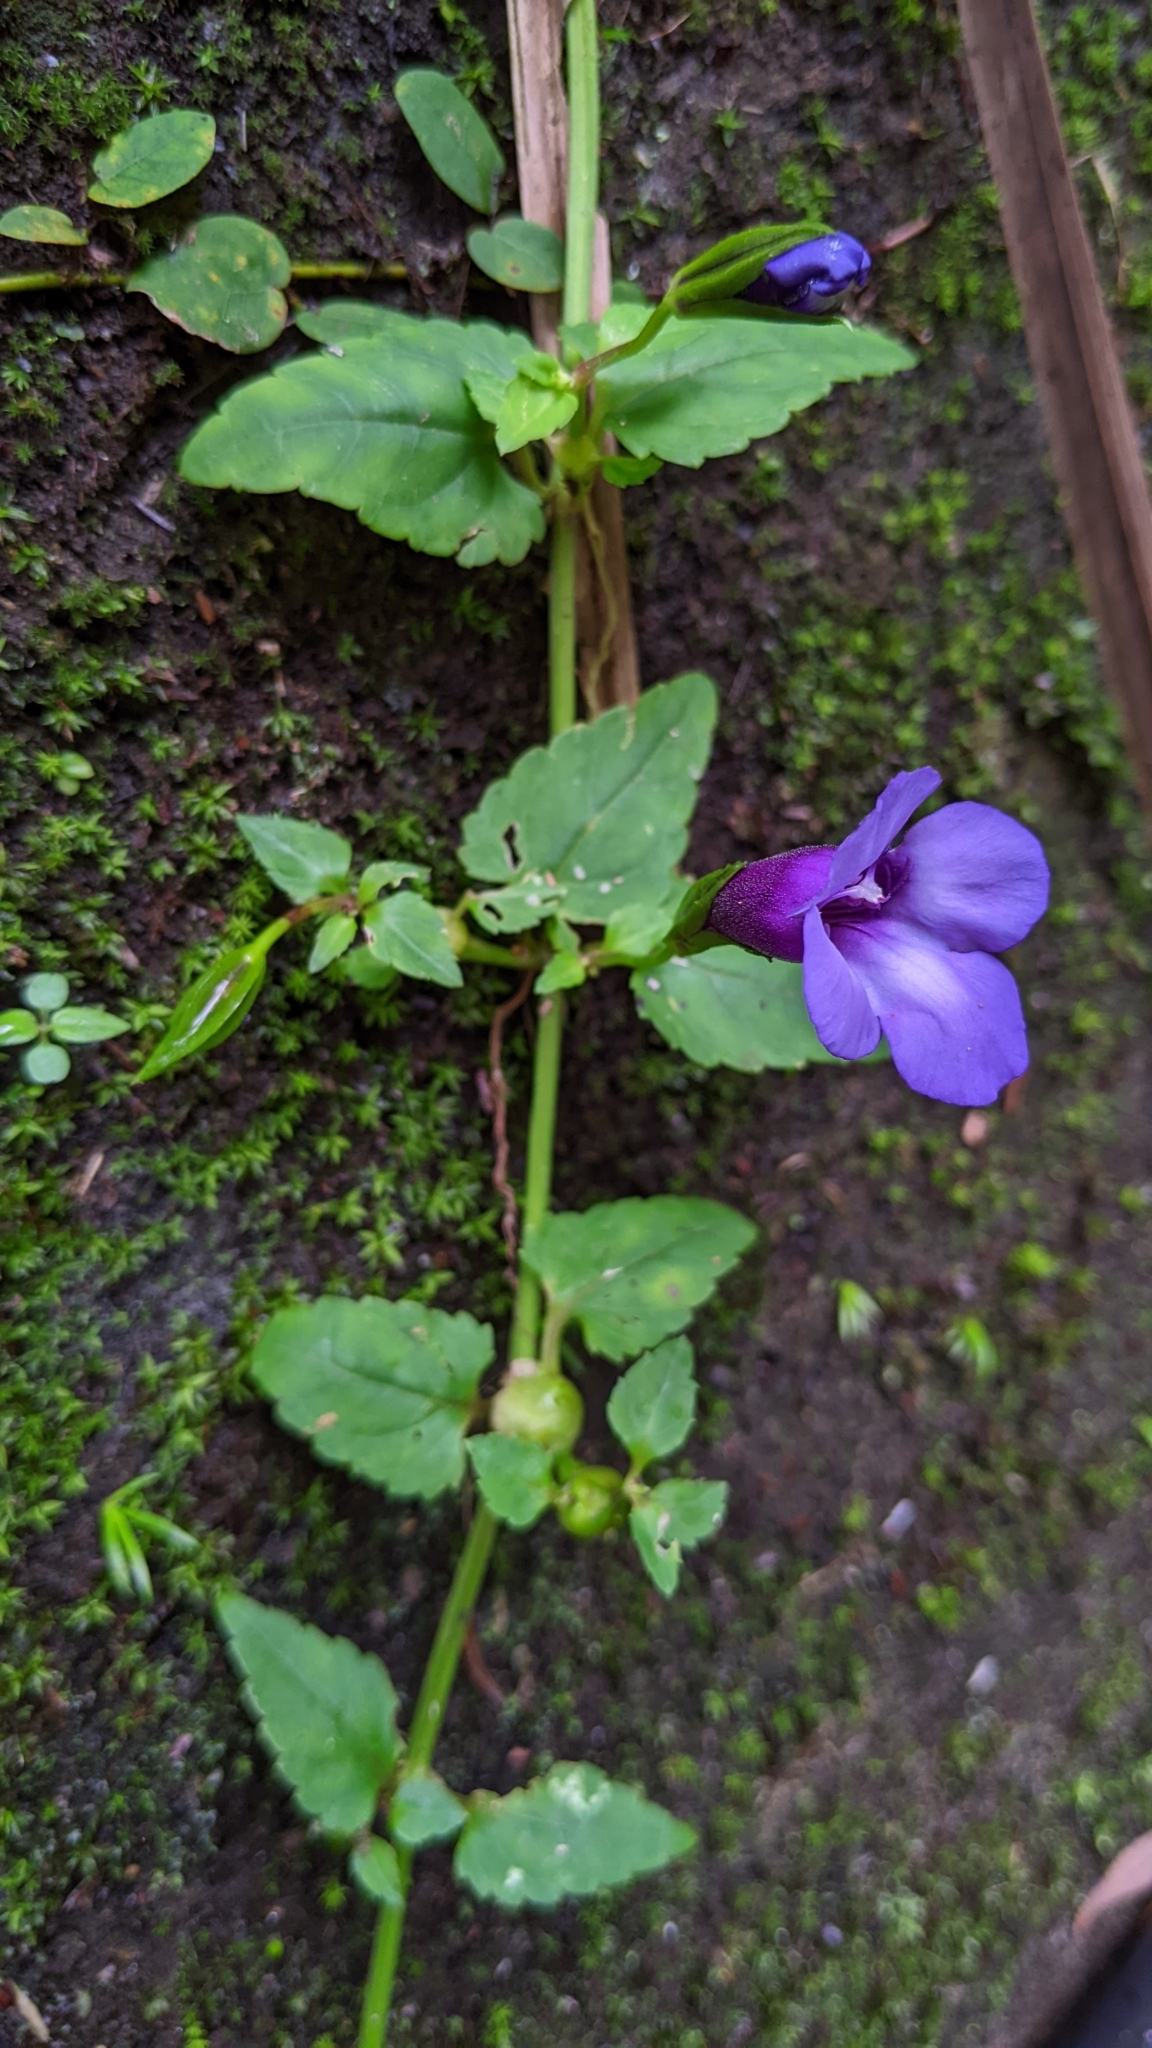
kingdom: Plantae
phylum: Tracheophyta
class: Magnoliopsida
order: Lamiales
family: Linderniaceae
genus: Torenia
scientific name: Torenia concolor
